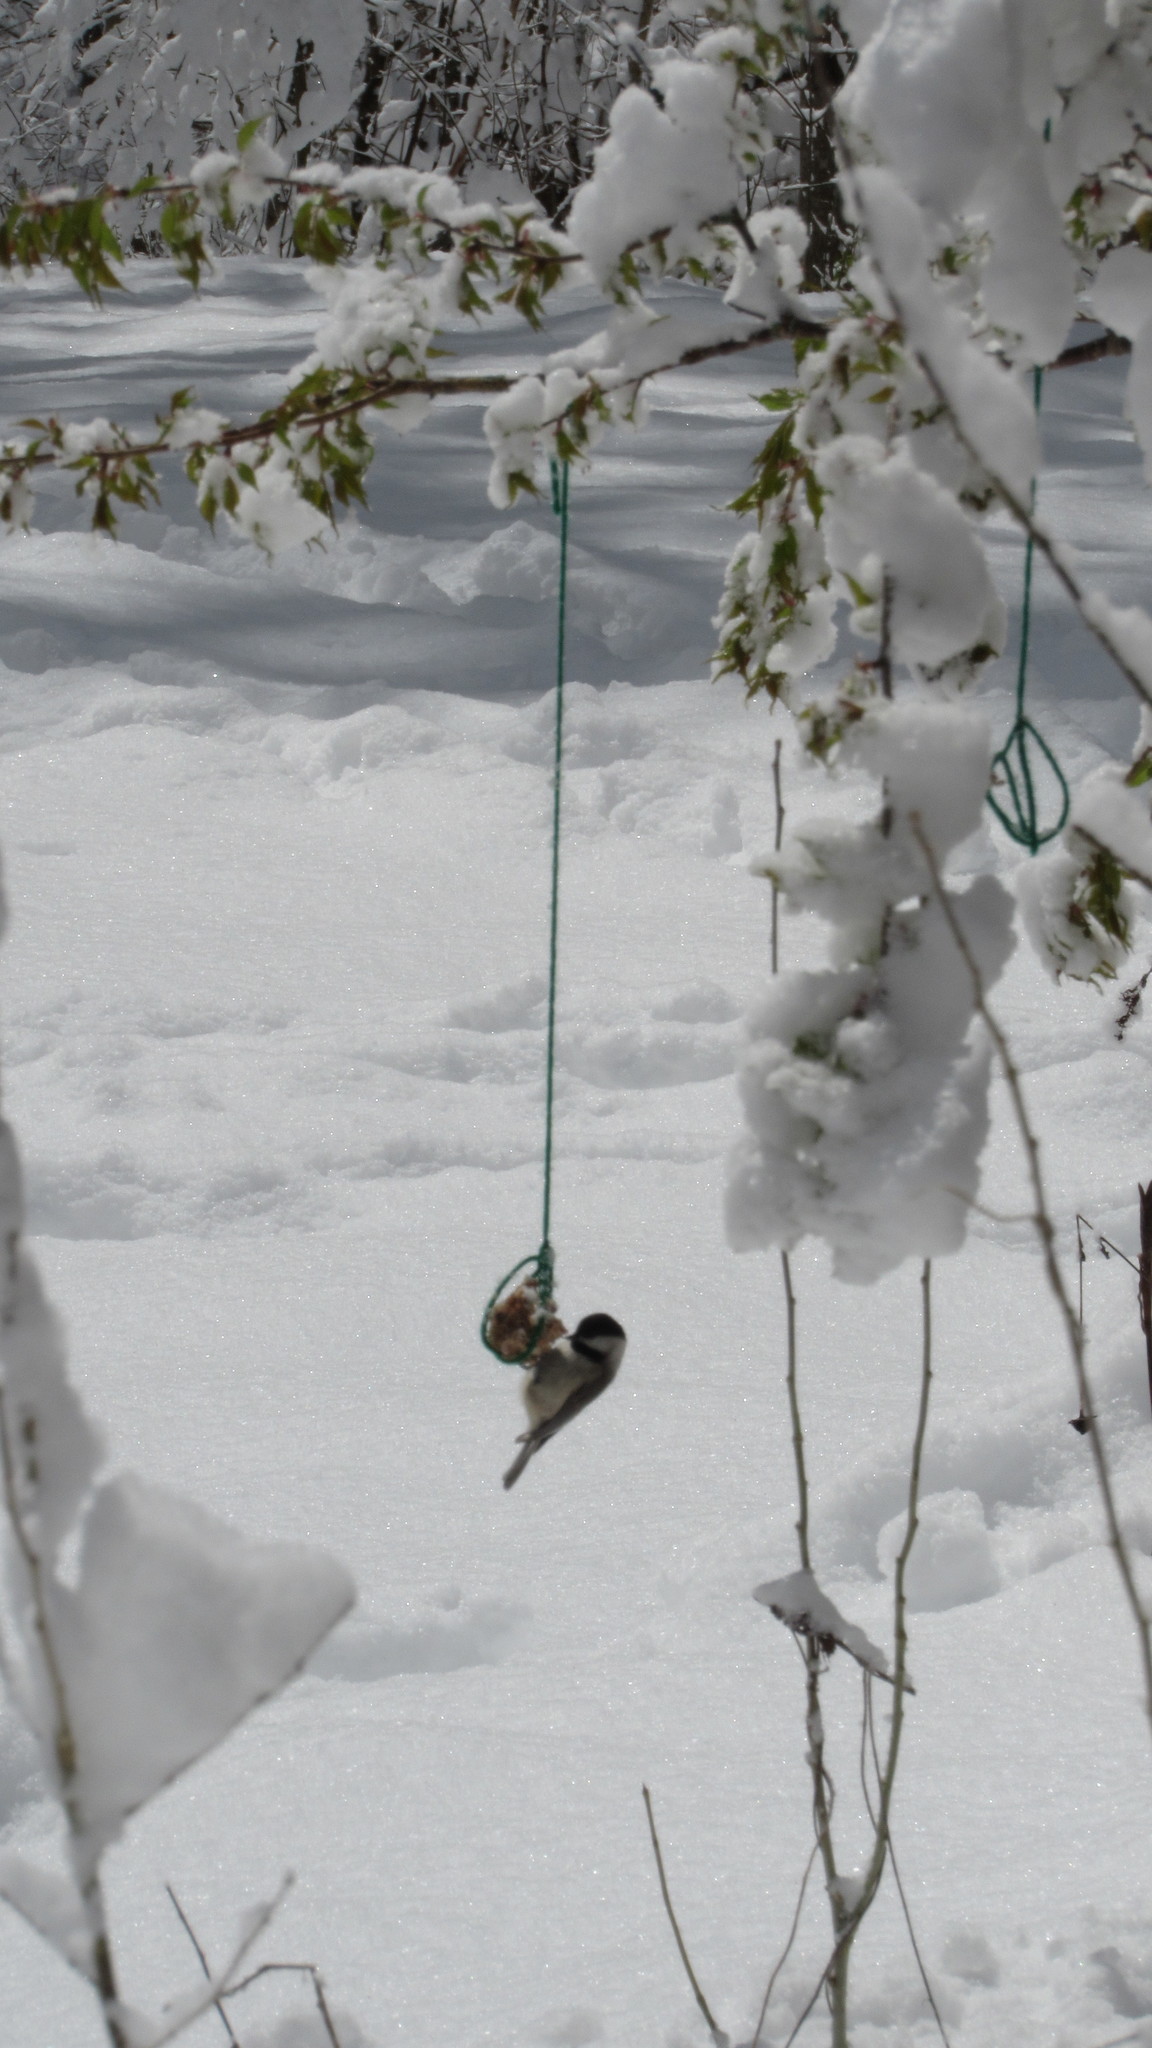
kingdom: Animalia
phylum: Chordata
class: Aves
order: Passeriformes
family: Paridae
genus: Poecile
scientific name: Poecile carolinensis
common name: Carolina chickadee
